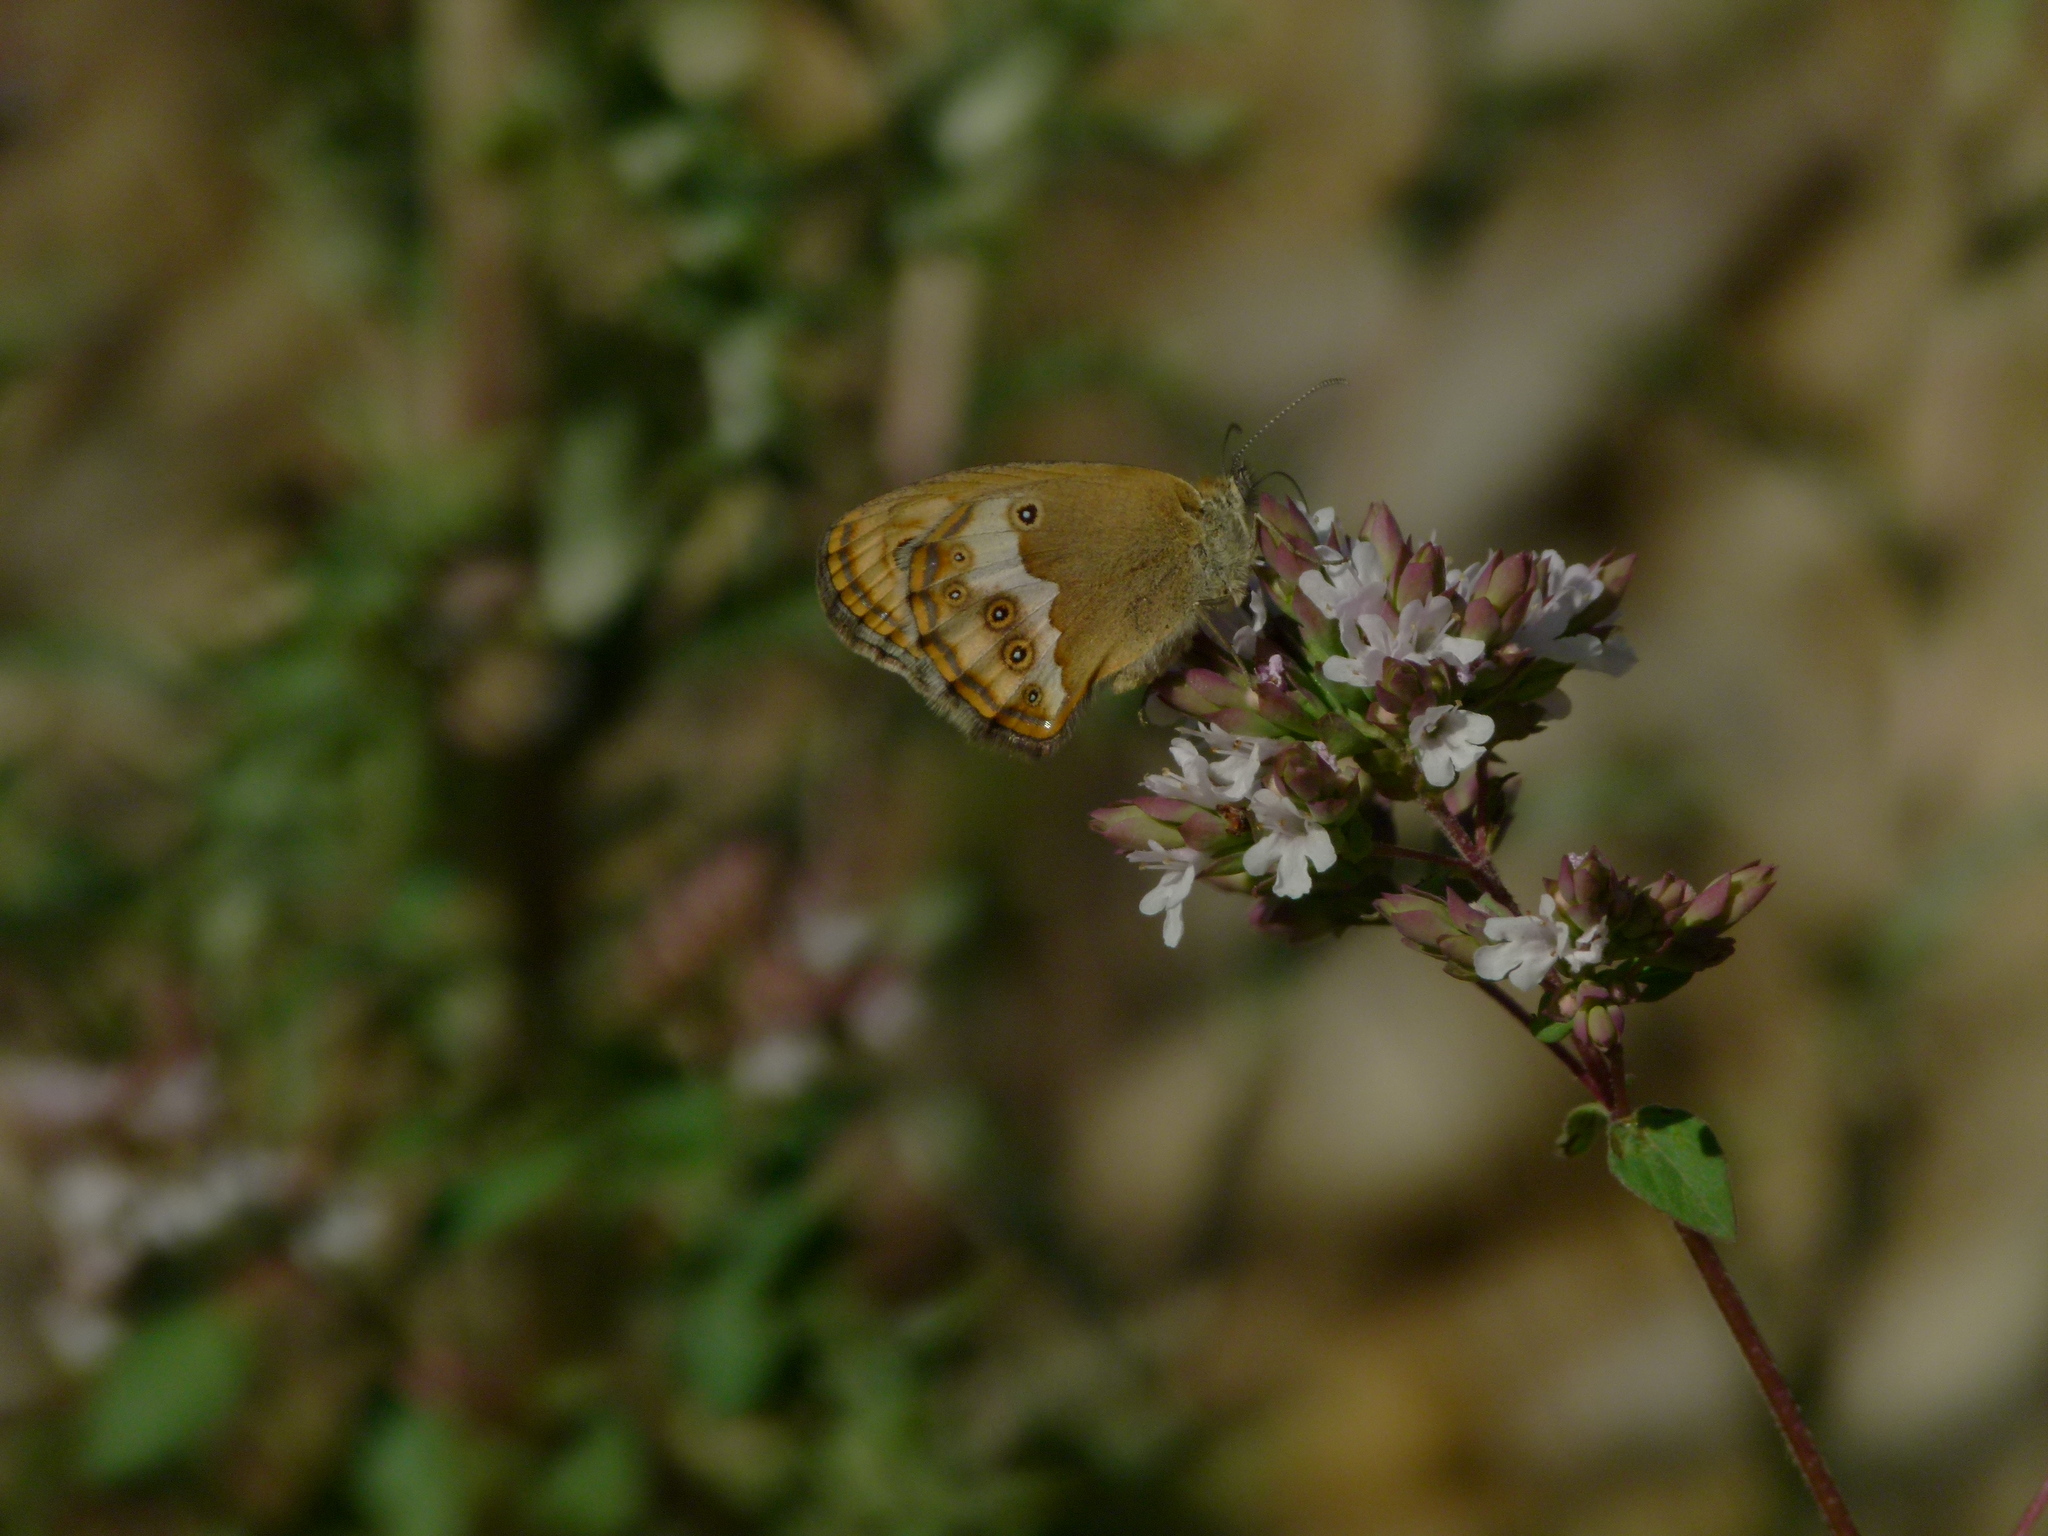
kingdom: Animalia
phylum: Arthropoda
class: Insecta
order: Lepidoptera
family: Nymphalidae
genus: Coenonympha
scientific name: Coenonympha dorus
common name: Dusky heath
